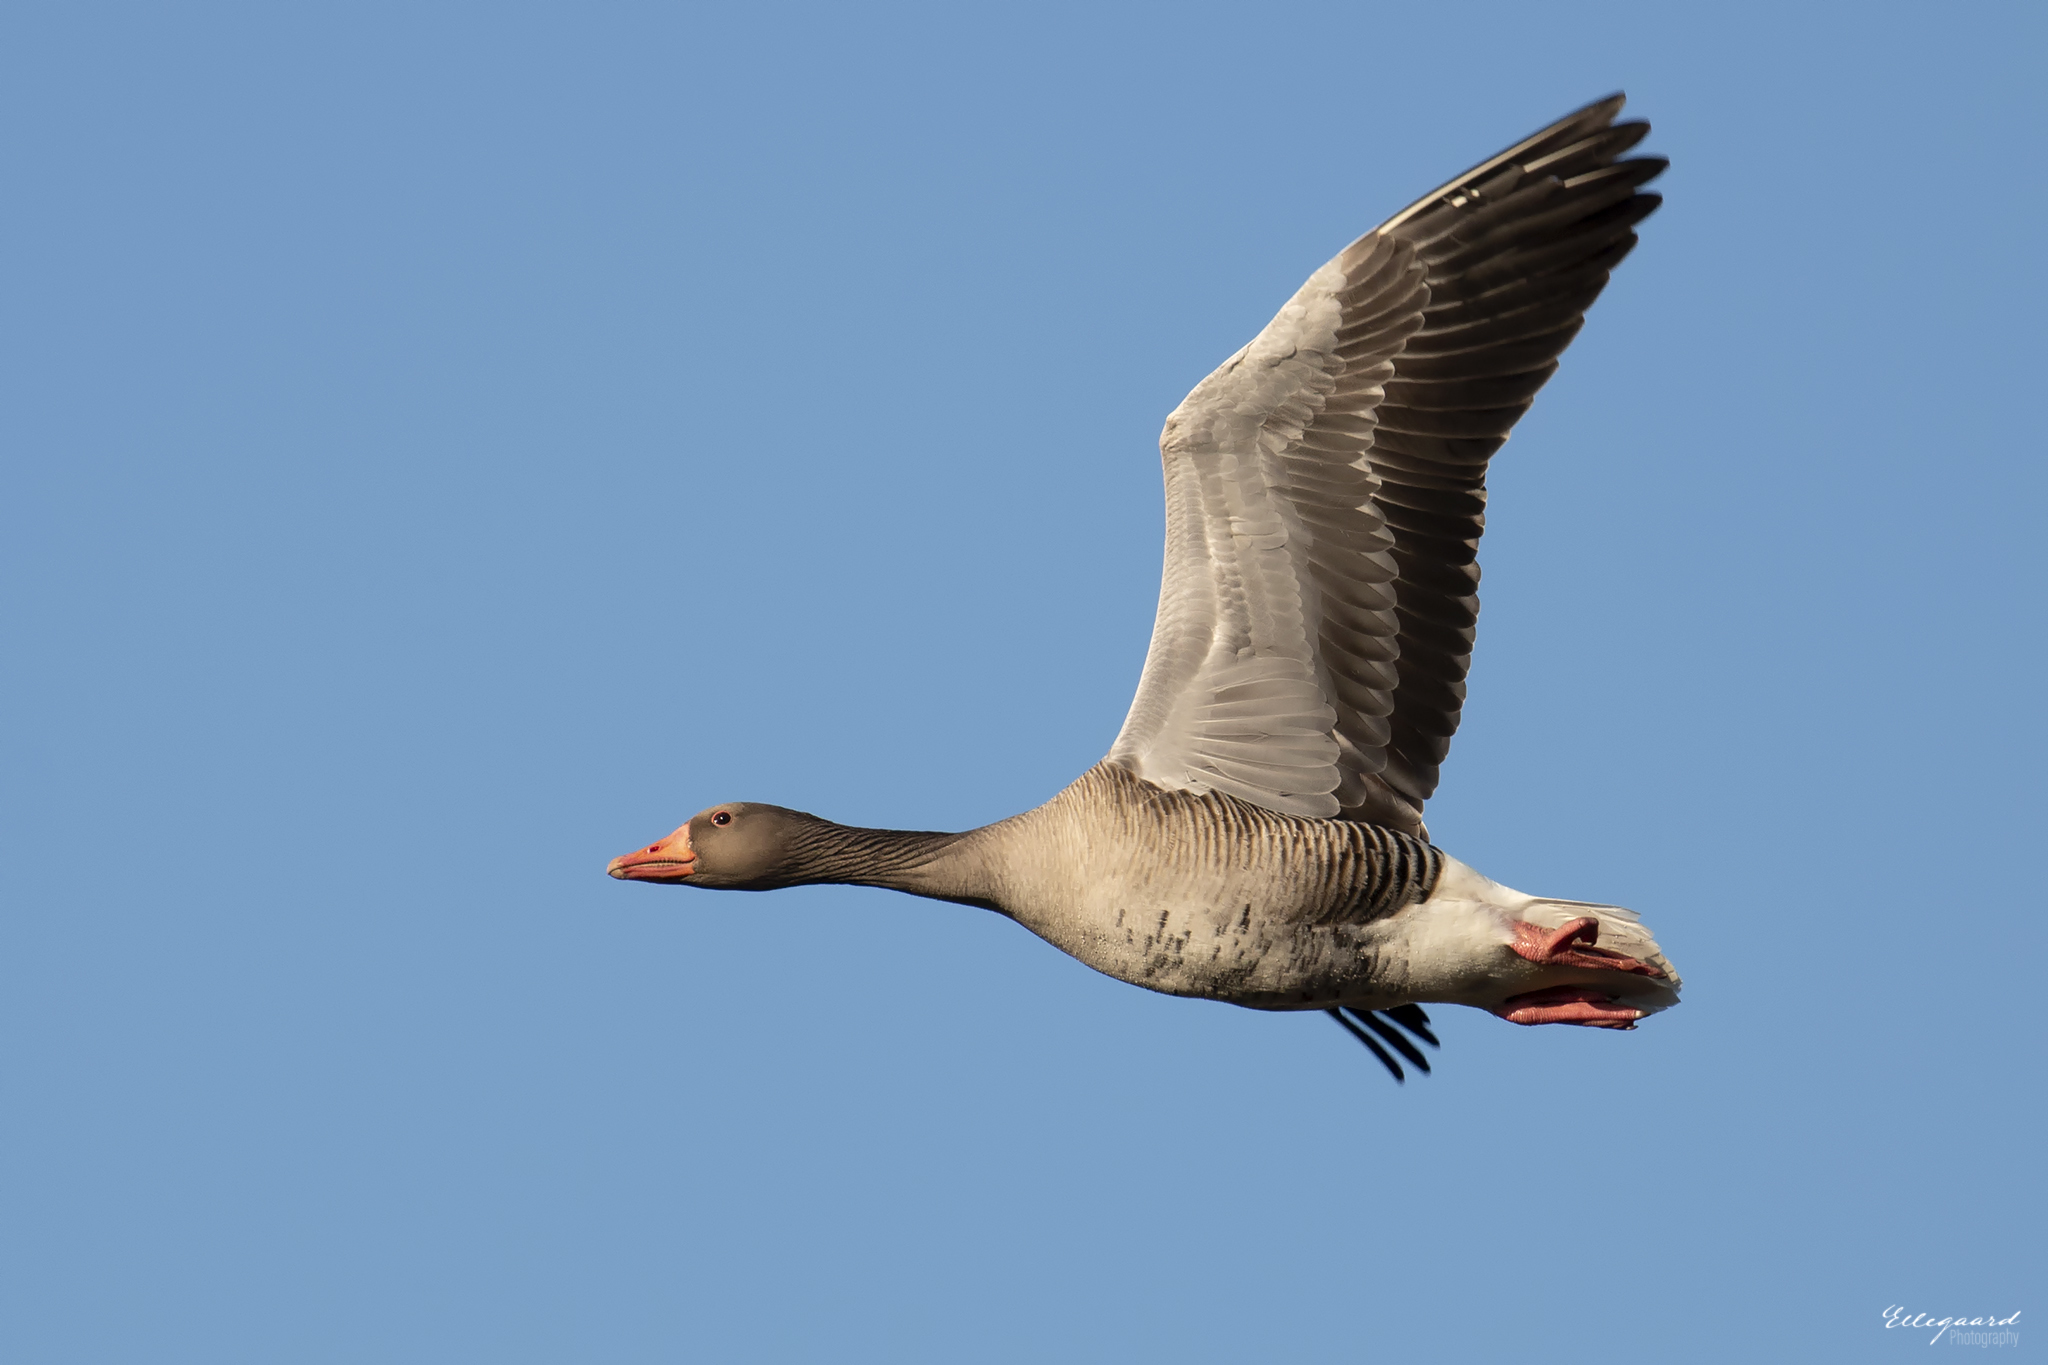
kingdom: Animalia
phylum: Chordata
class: Aves
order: Anseriformes
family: Anatidae
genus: Anser
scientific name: Anser anser
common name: Greylag goose
